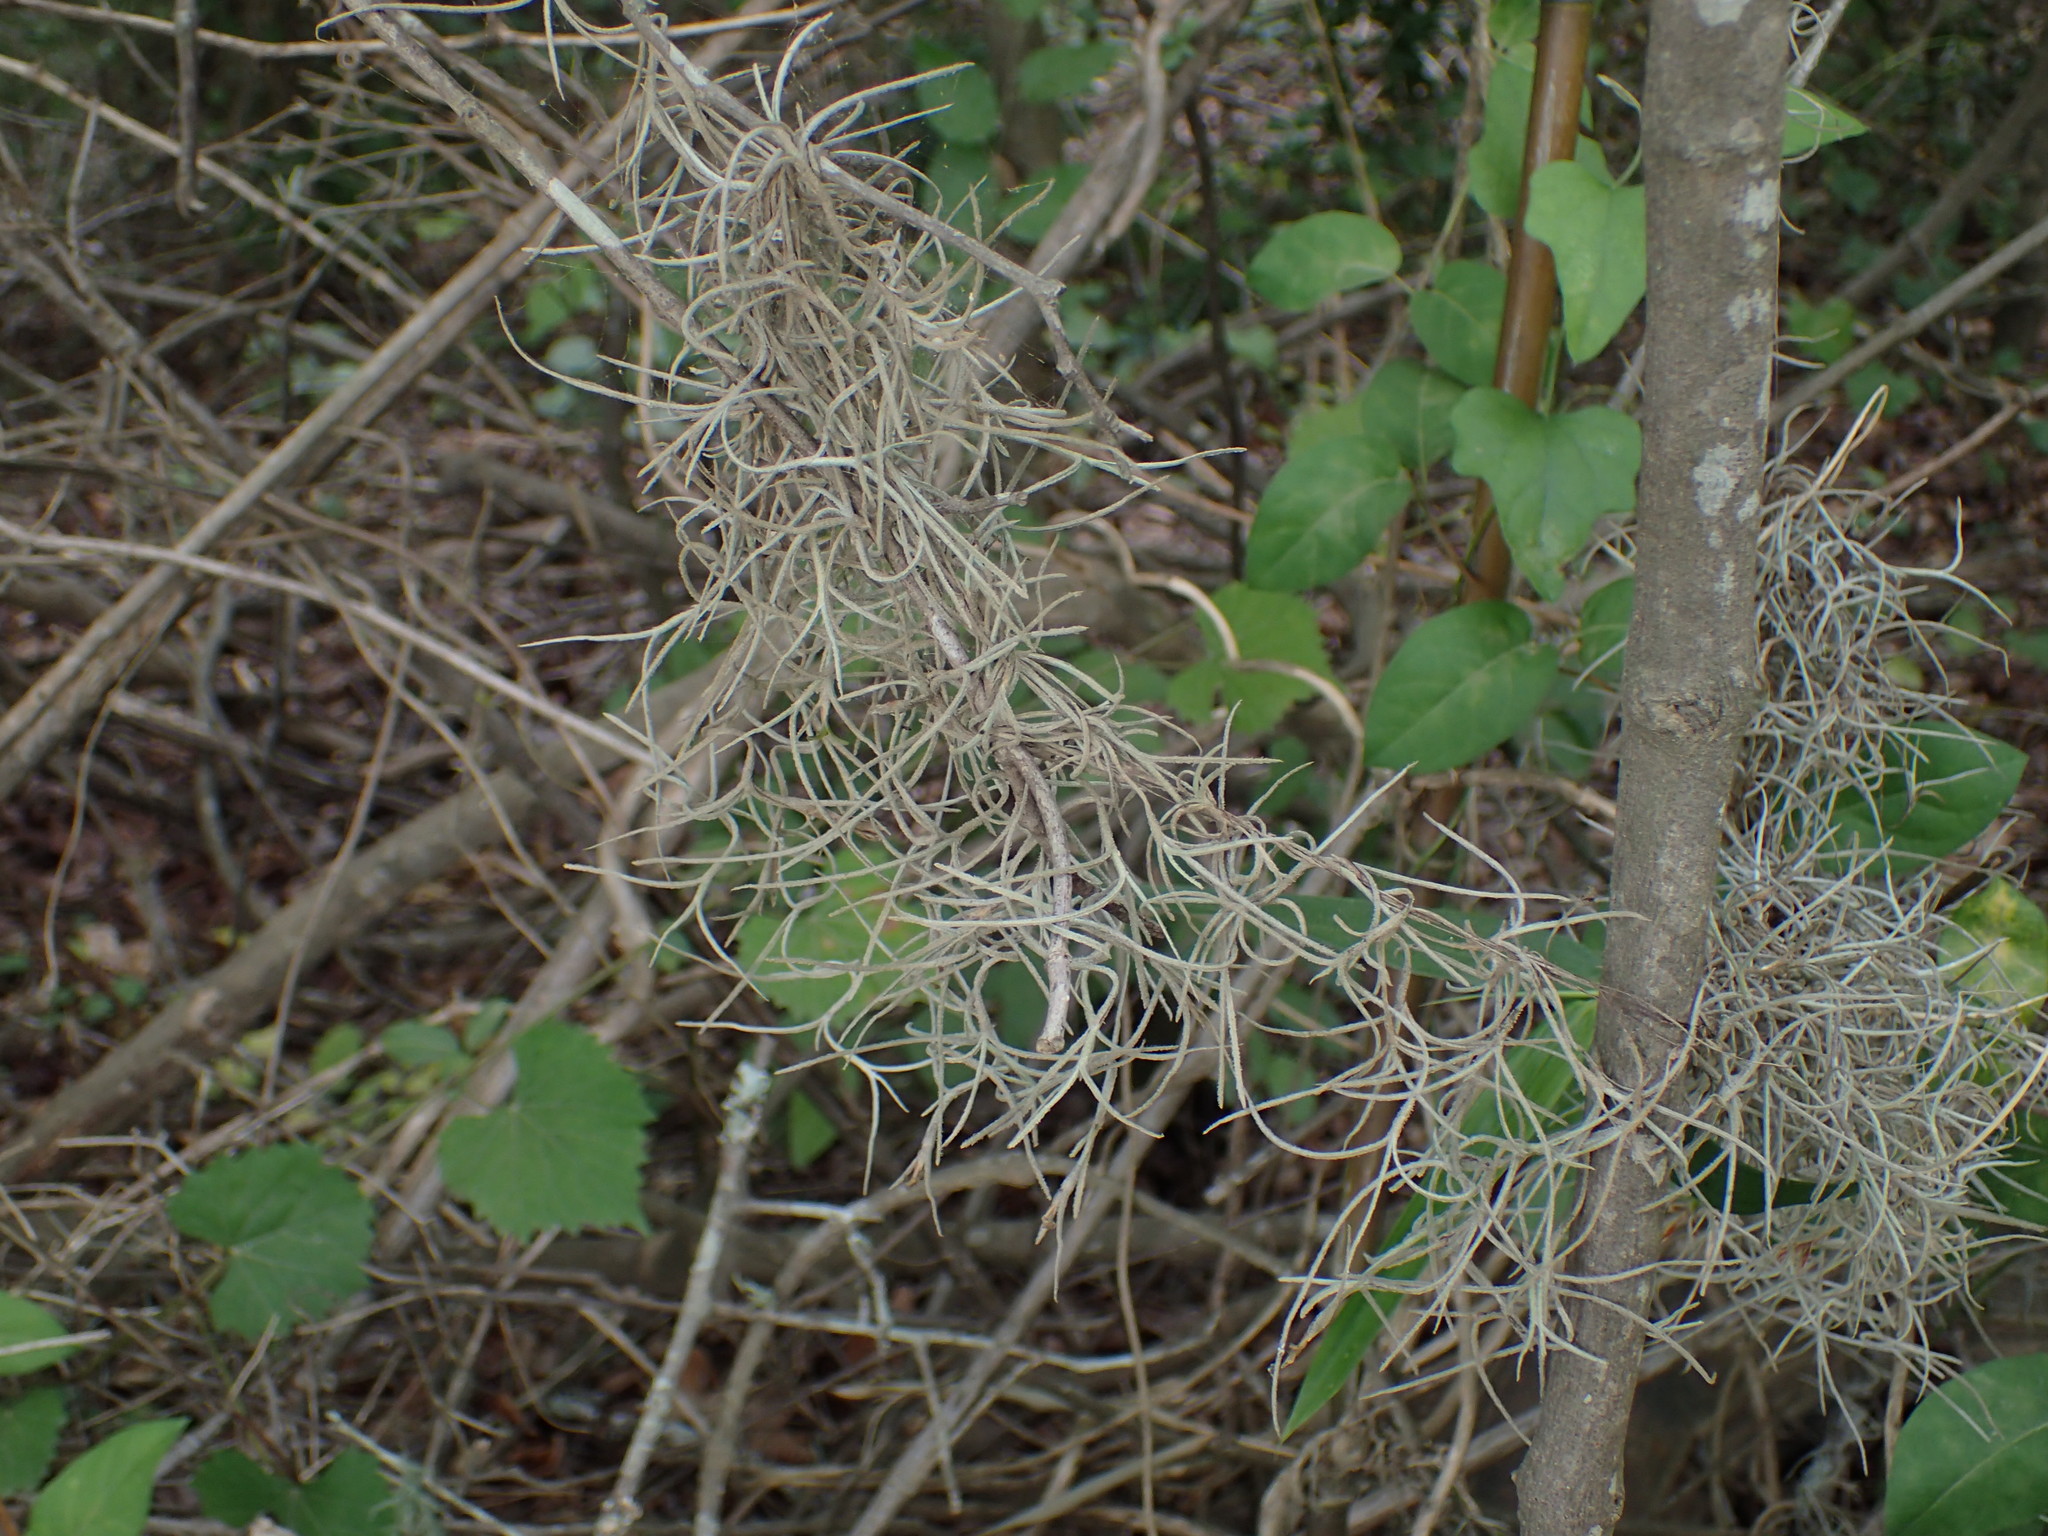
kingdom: Plantae
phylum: Tracheophyta
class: Liliopsida
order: Poales
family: Bromeliaceae
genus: Tillandsia
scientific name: Tillandsia usneoides
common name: Spanish moss
